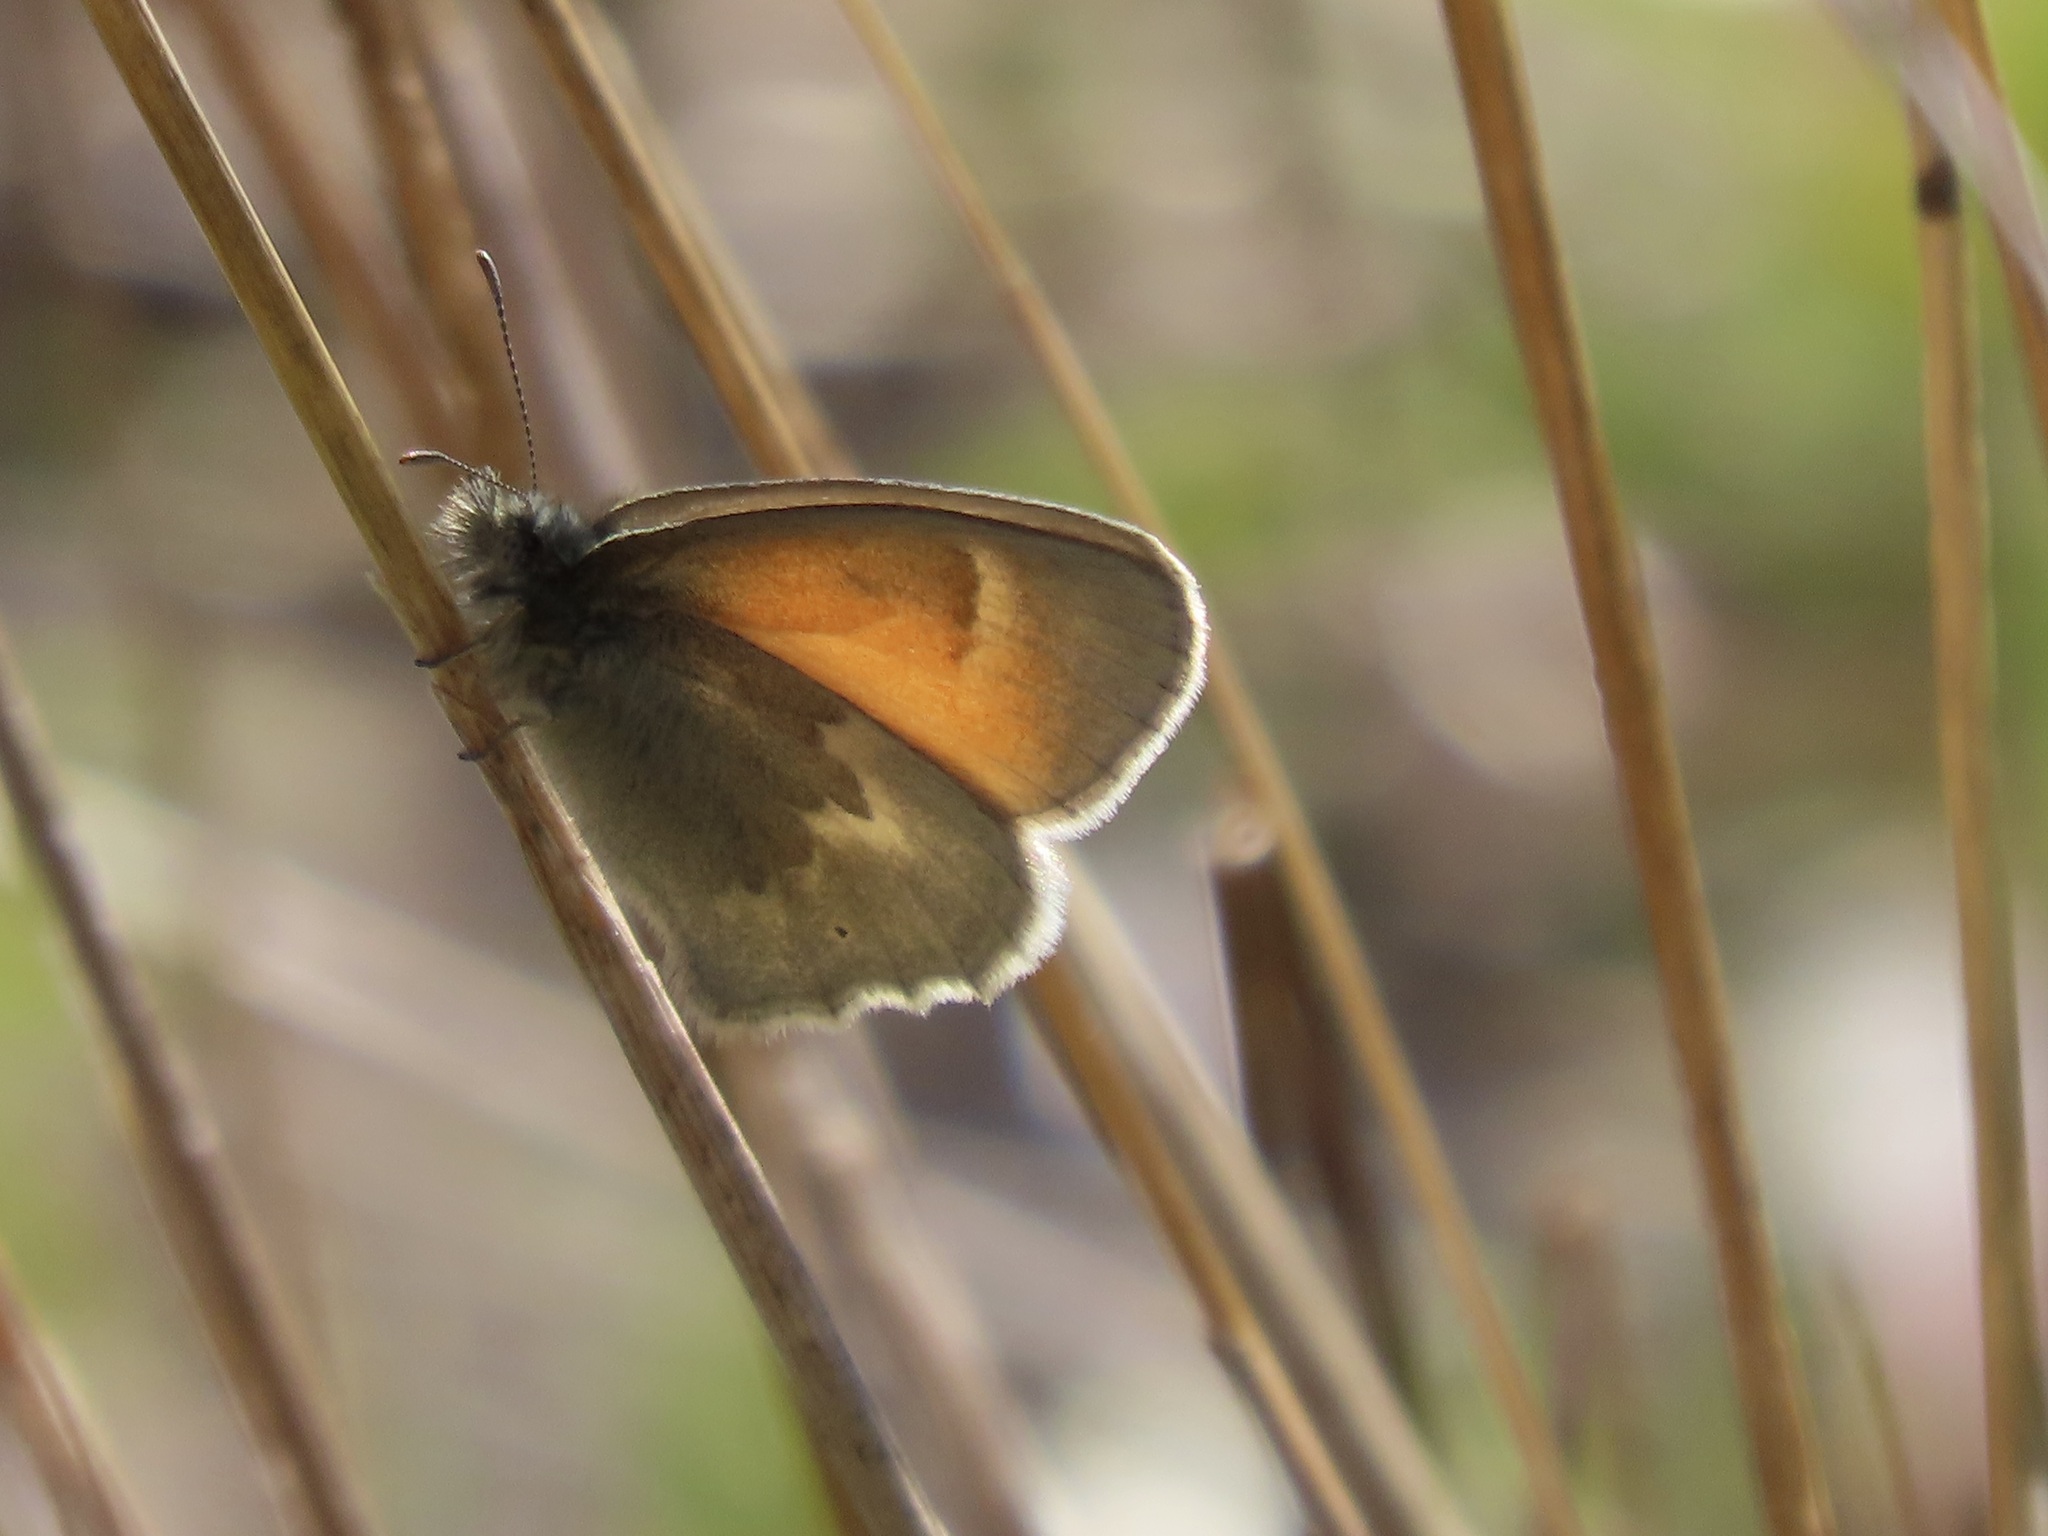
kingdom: Animalia
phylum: Arthropoda
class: Insecta
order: Lepidoptera
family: Nymphalidae
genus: Coenonympha
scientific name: Coenonympha california
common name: Common ringlet
